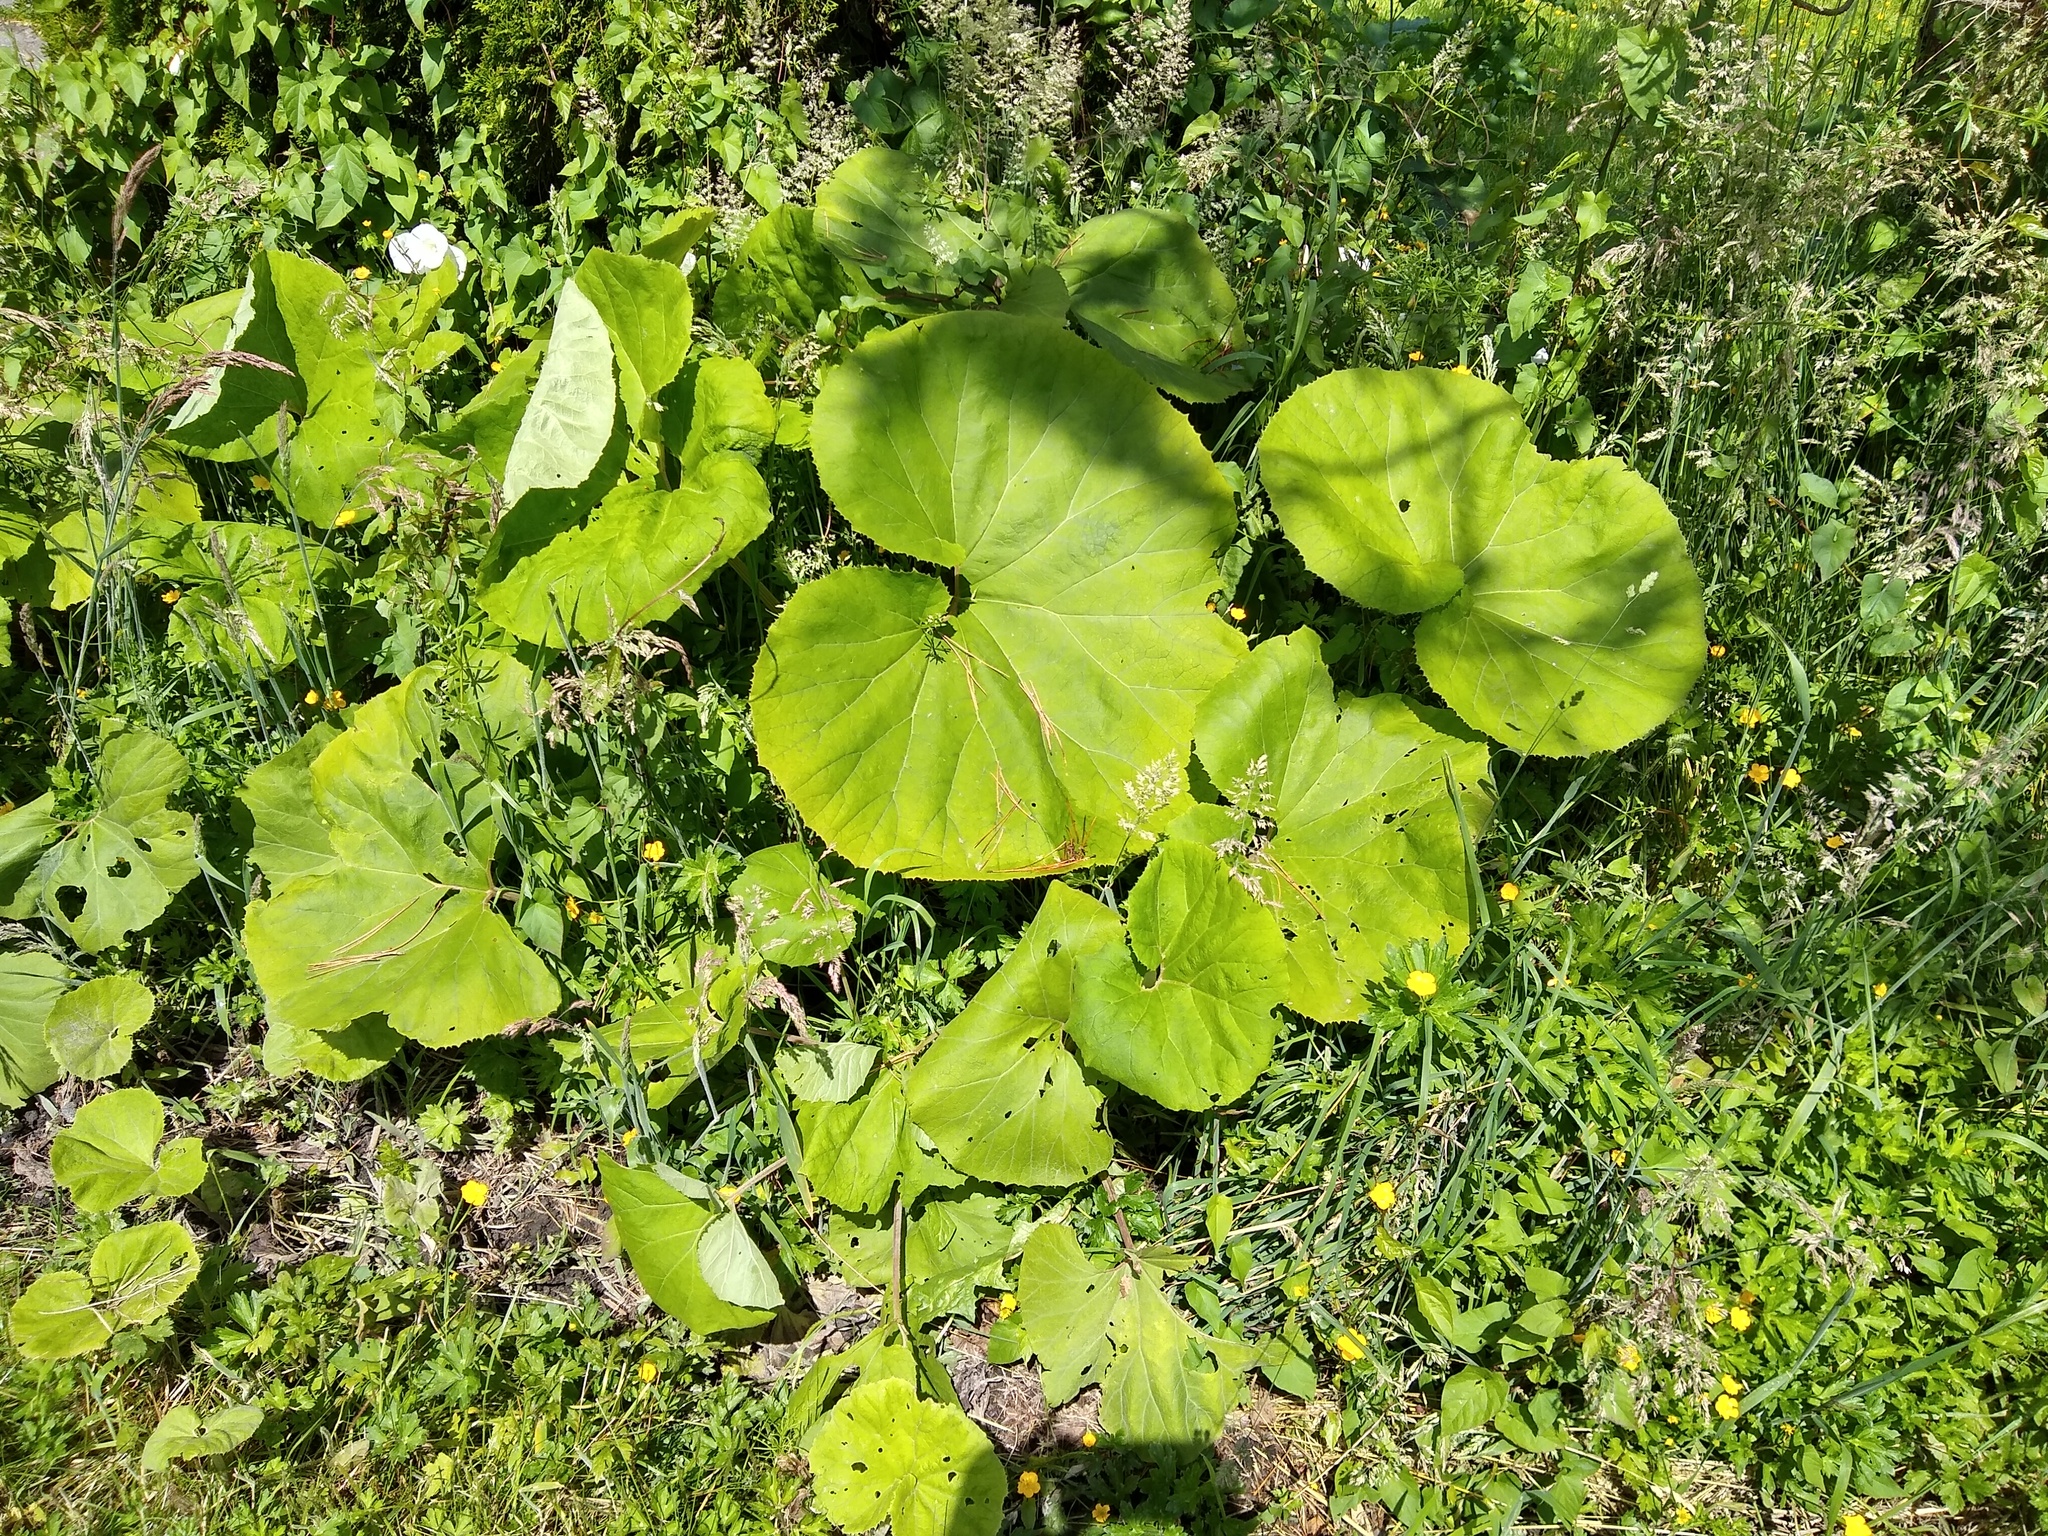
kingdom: Plantae
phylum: Tracheophyta
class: Magnoliopsida
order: Asterales
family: Asteraceae
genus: Petasites
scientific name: Petasites japonicus
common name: Giant butterbur
